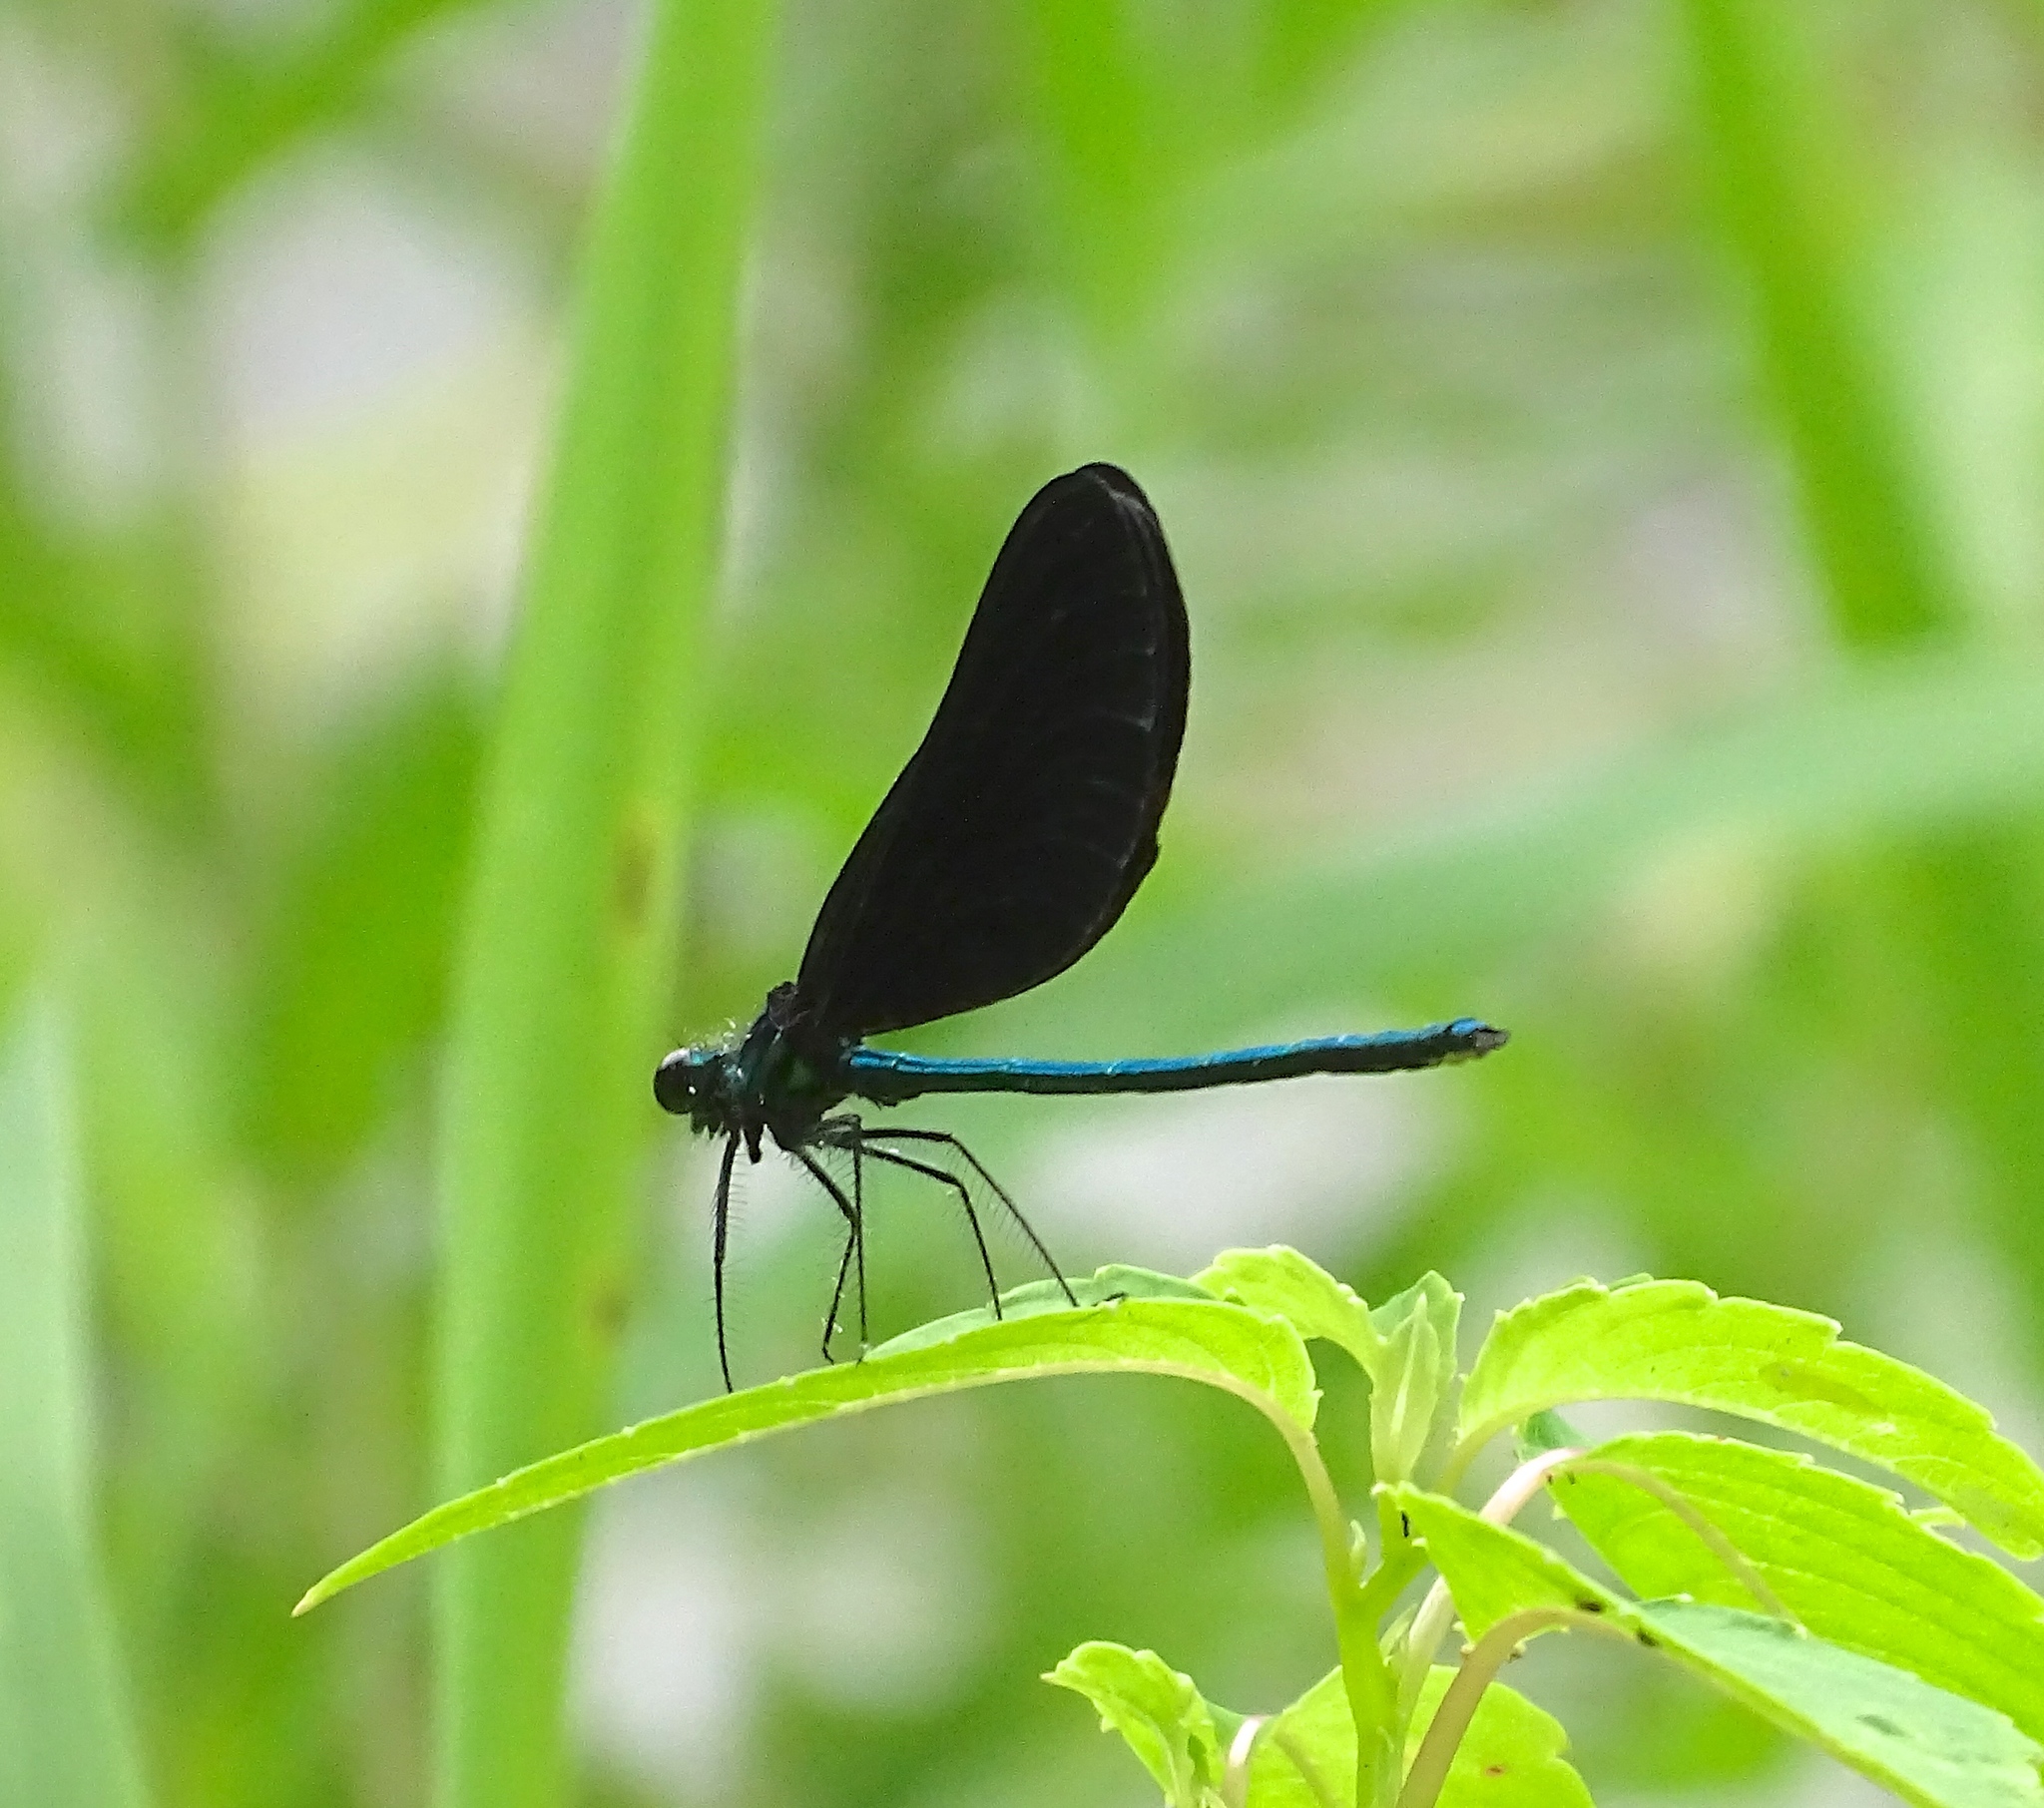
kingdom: Animalia
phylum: Arthropoda
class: Insecta
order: Odonata
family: Calopterygidae
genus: Calopteryx
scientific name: Calopteryx maculata
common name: Ebony jewelwing
